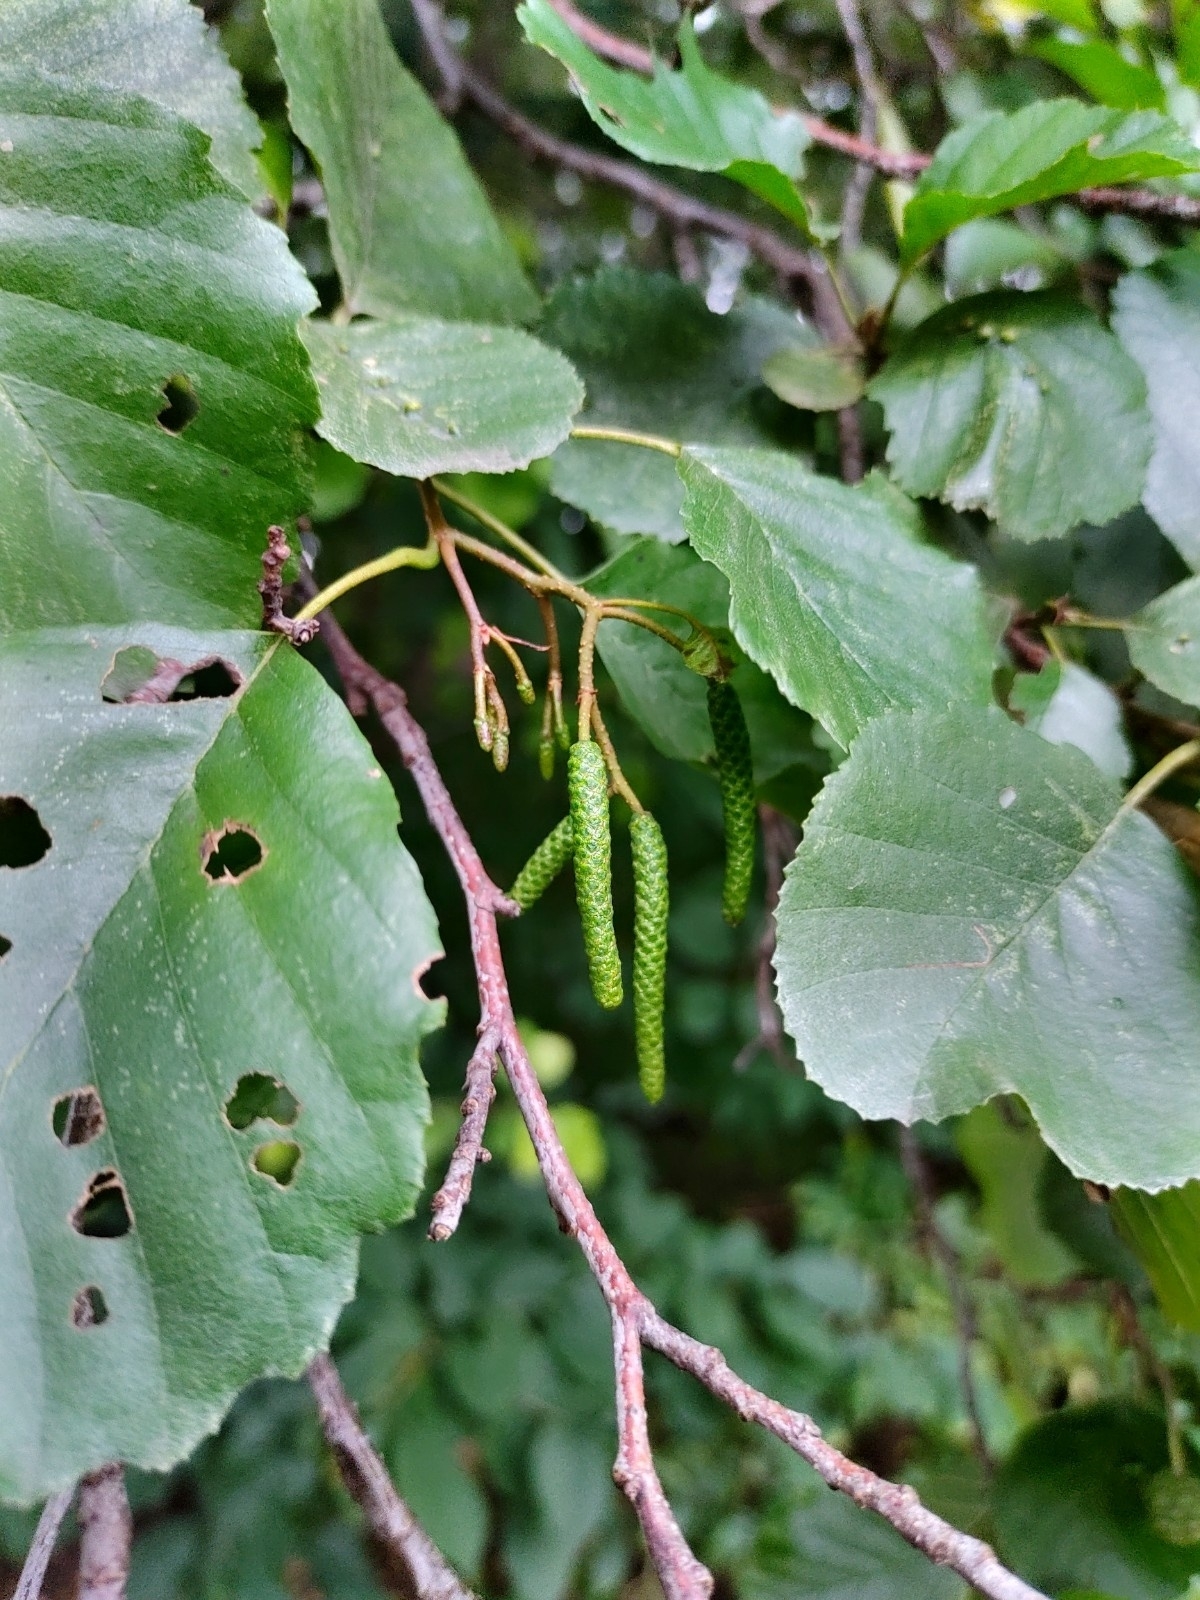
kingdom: Plantae
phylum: Tracheophyta
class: Magnoliopsida
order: Fagales
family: Betulaceae
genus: Alnus
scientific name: Alnus glutinosa
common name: Black alder
